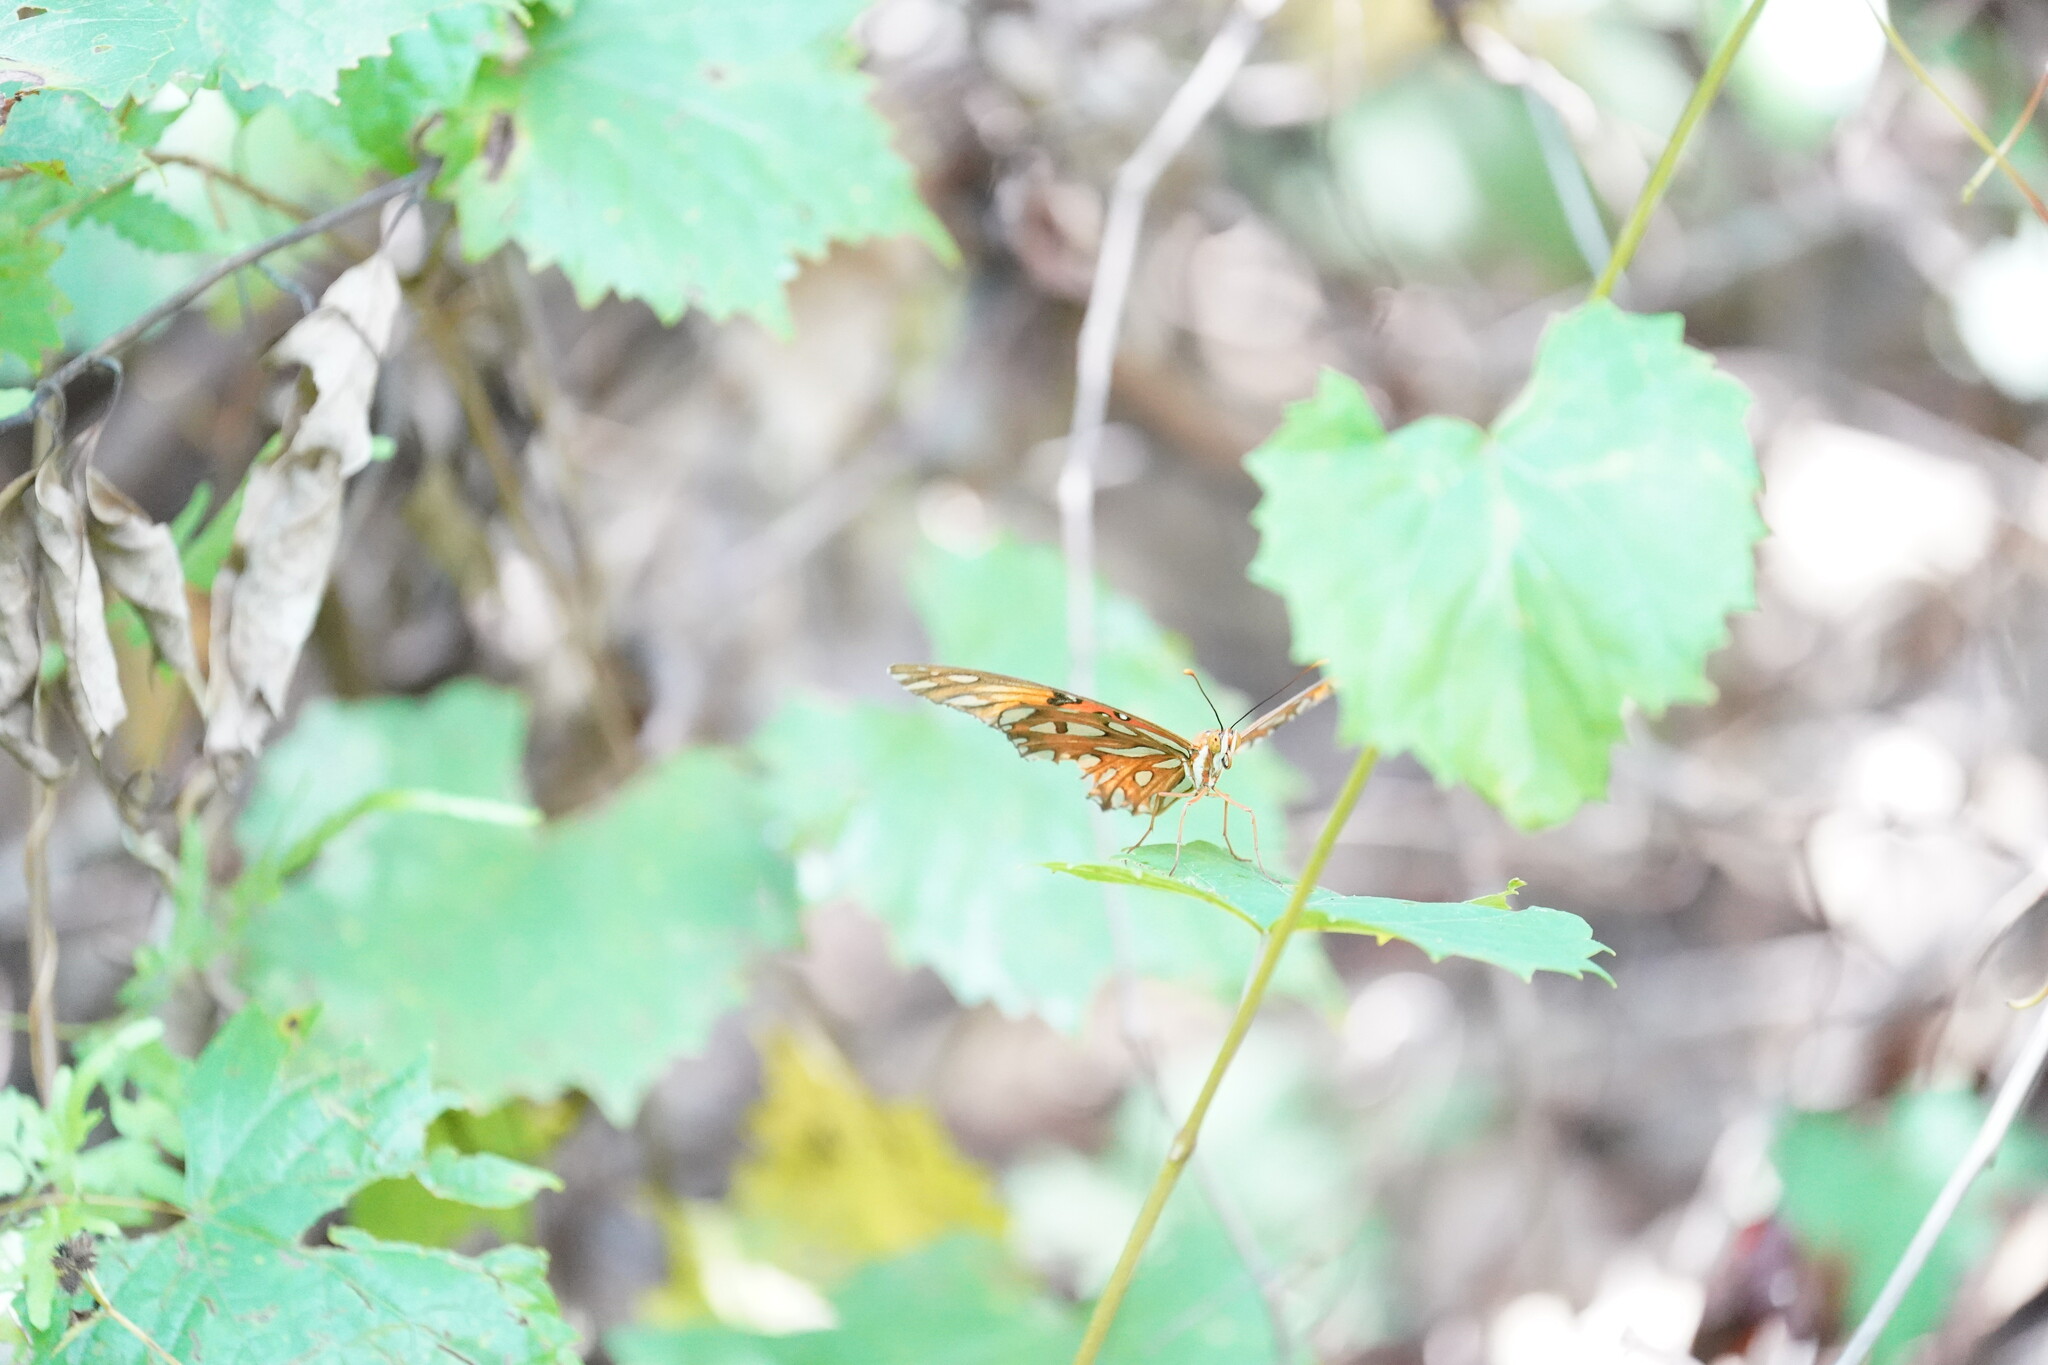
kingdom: Animalia
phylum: Arthropoda
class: Insecta
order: Lepidoptera
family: Nymphalidae
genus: Dione
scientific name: Dione vanillae
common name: Gulf fritillary
